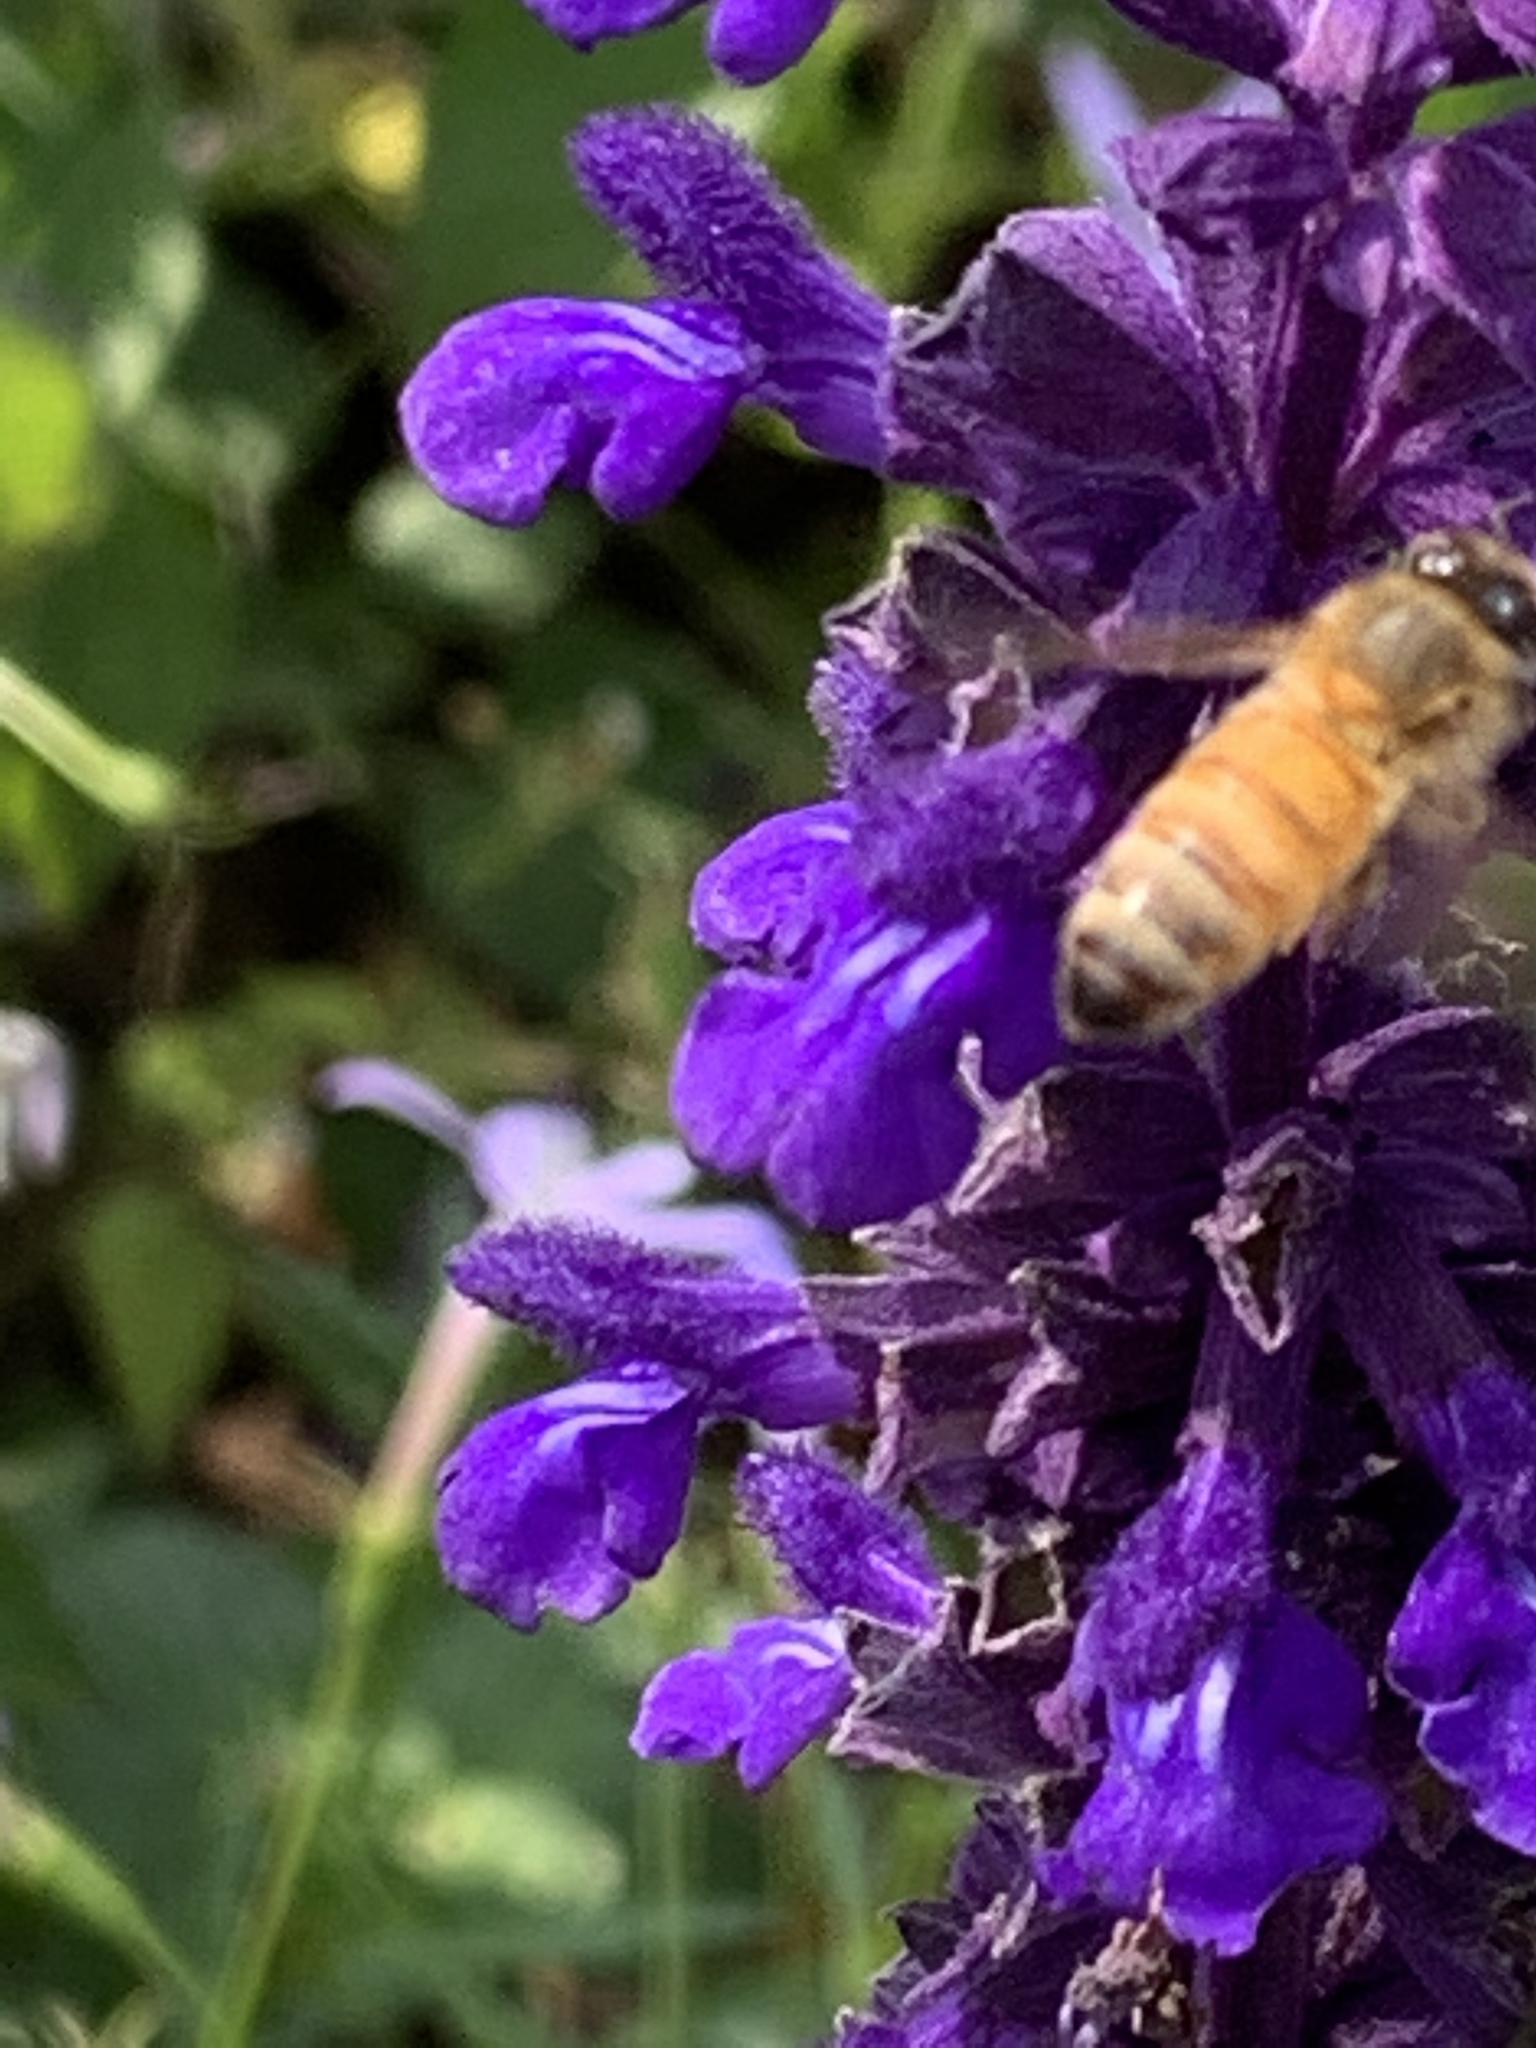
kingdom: Animalia
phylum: Arthropoda
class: Insecta
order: Hymenoptera
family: Apidae
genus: Apis
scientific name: Apis mellifera
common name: Honey bee
